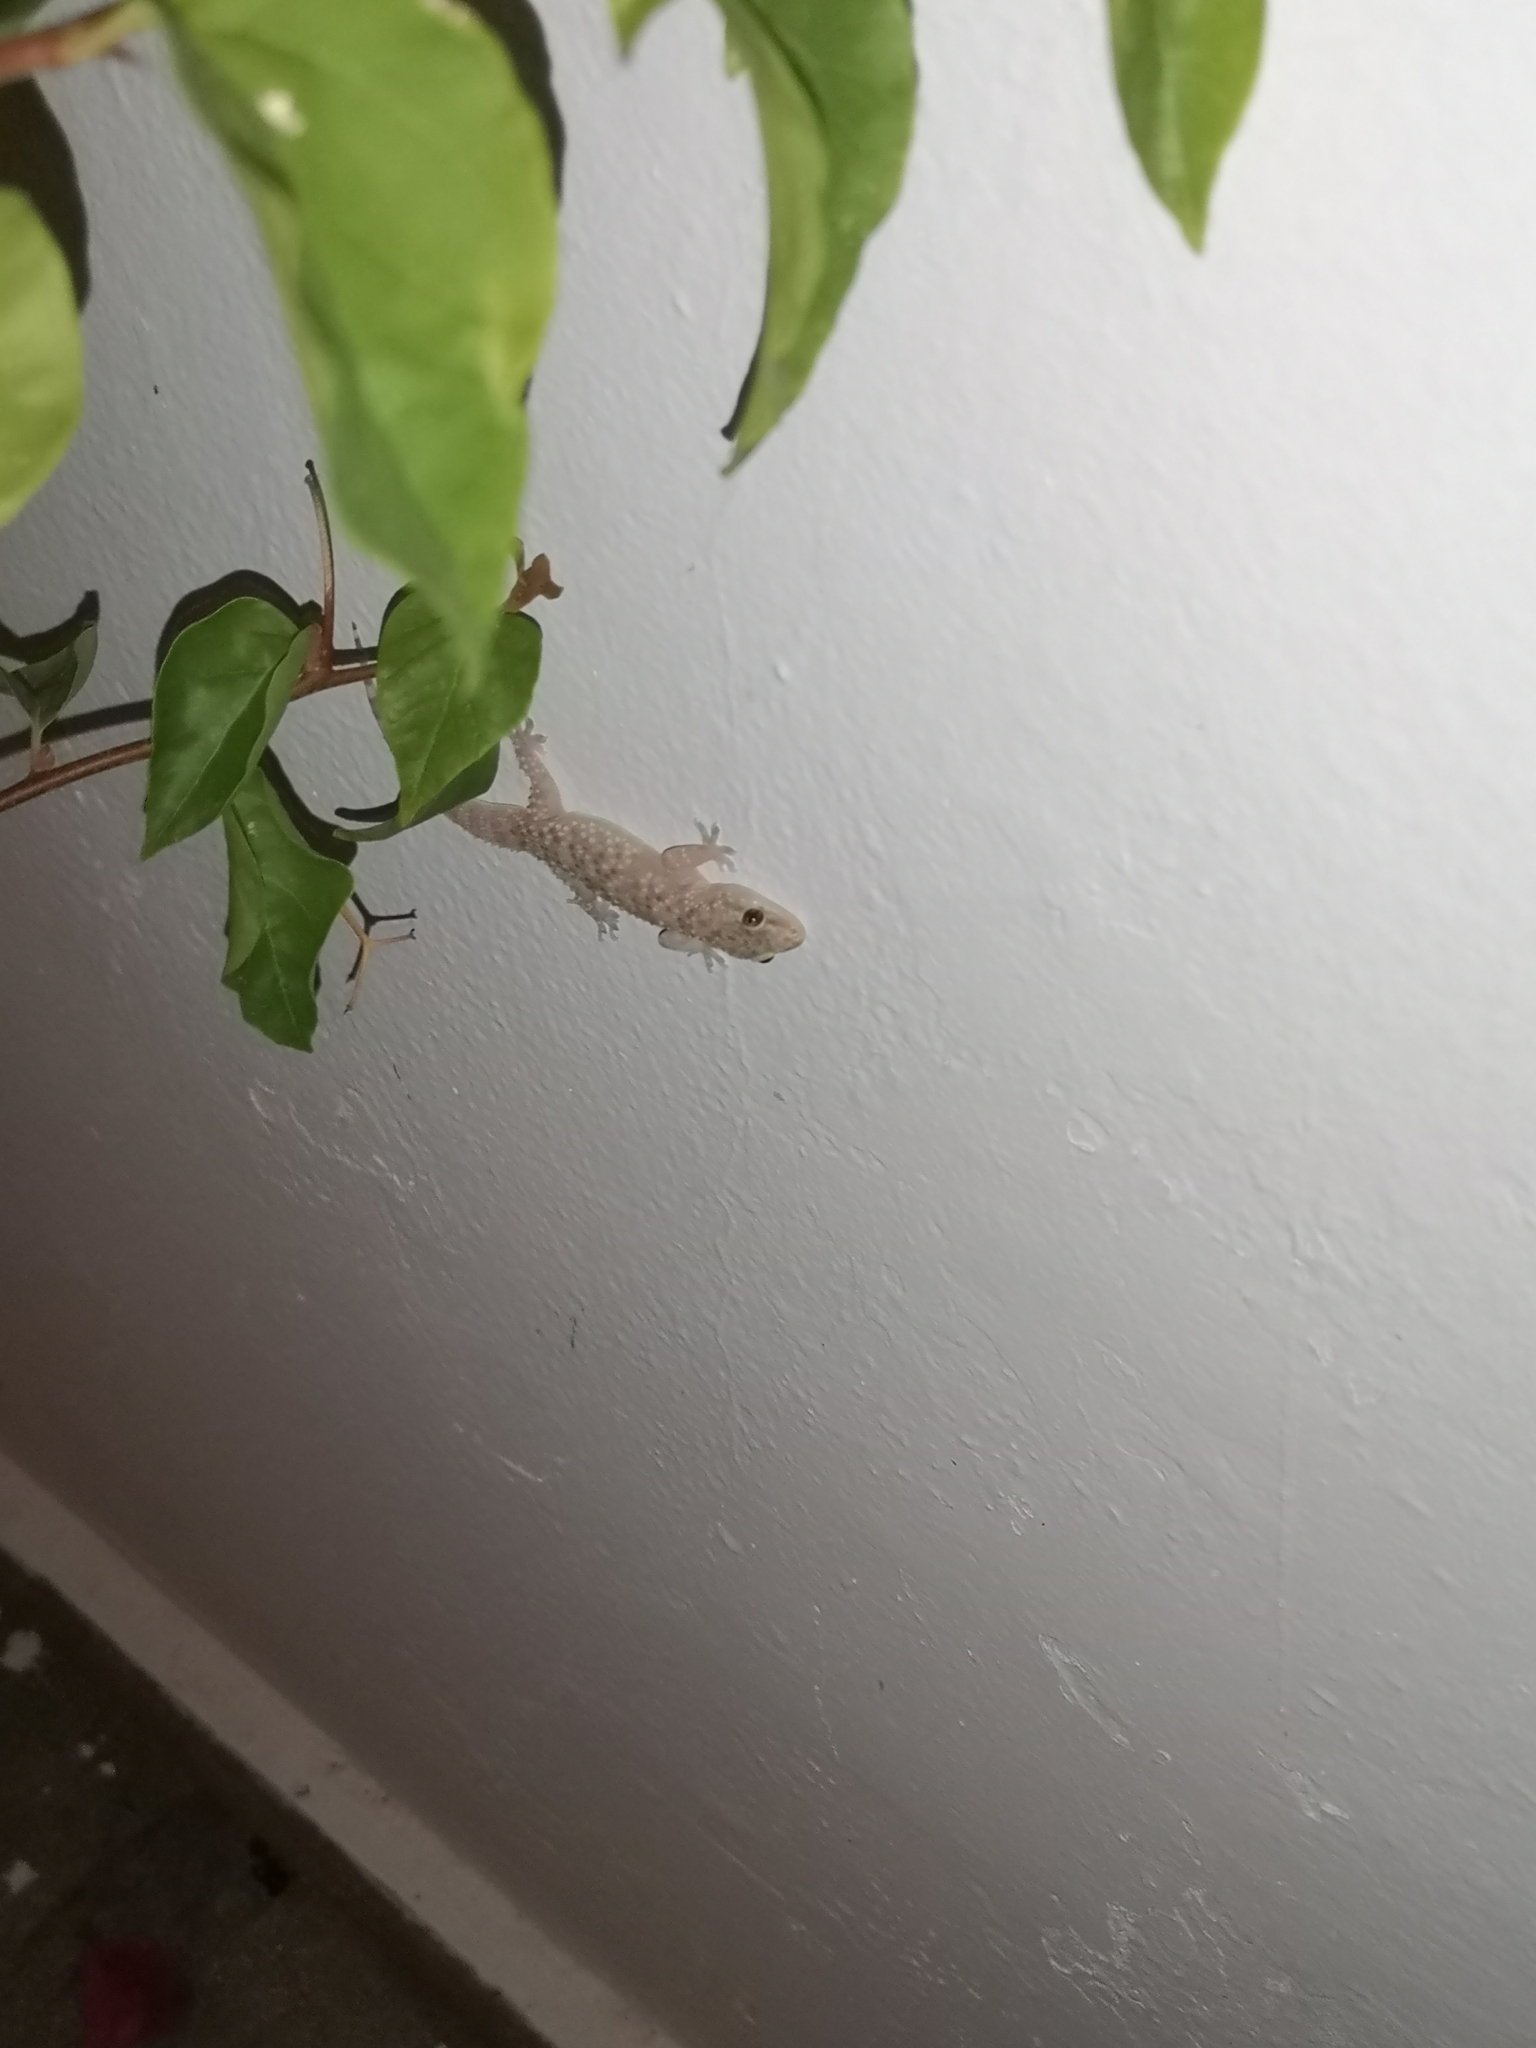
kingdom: Animalia
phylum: Chordata
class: Squamata
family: Gekkonidae
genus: Hemidactylus
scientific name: Hemidactylus turcicus
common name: Turkish gecko
